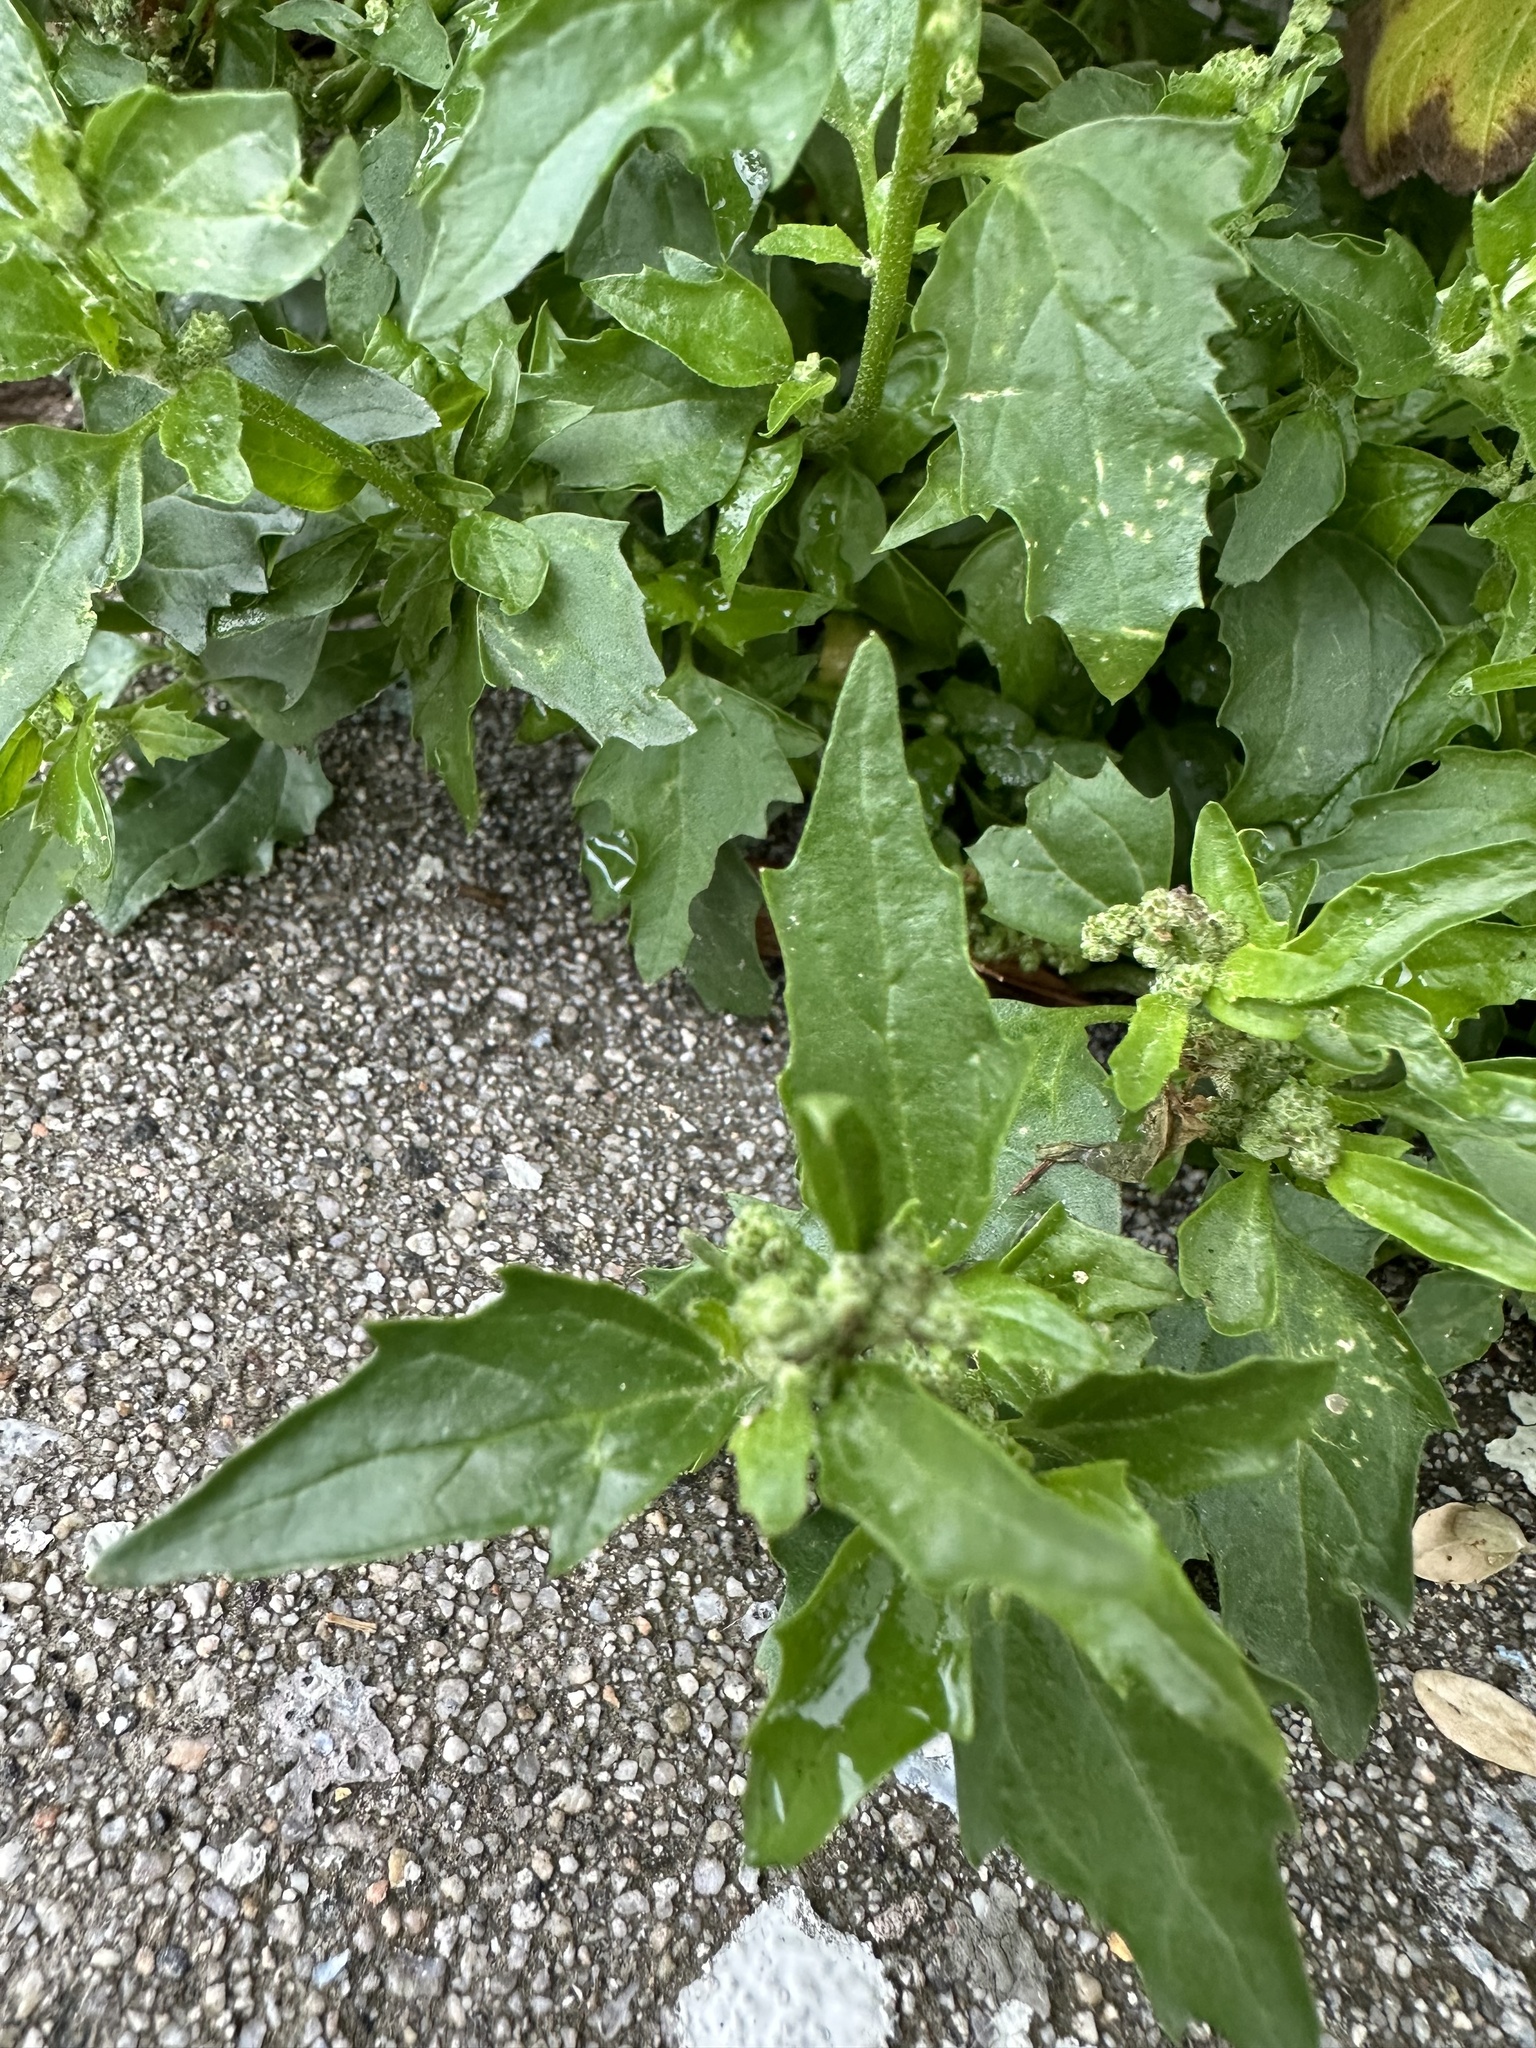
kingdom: Plantae
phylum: Tracheophyta
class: Magnoliopsida
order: Caryophyllales
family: Amaranthaceae
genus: Chenopodiastrum
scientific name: Chenopodiastrum murale
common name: Sowbane
